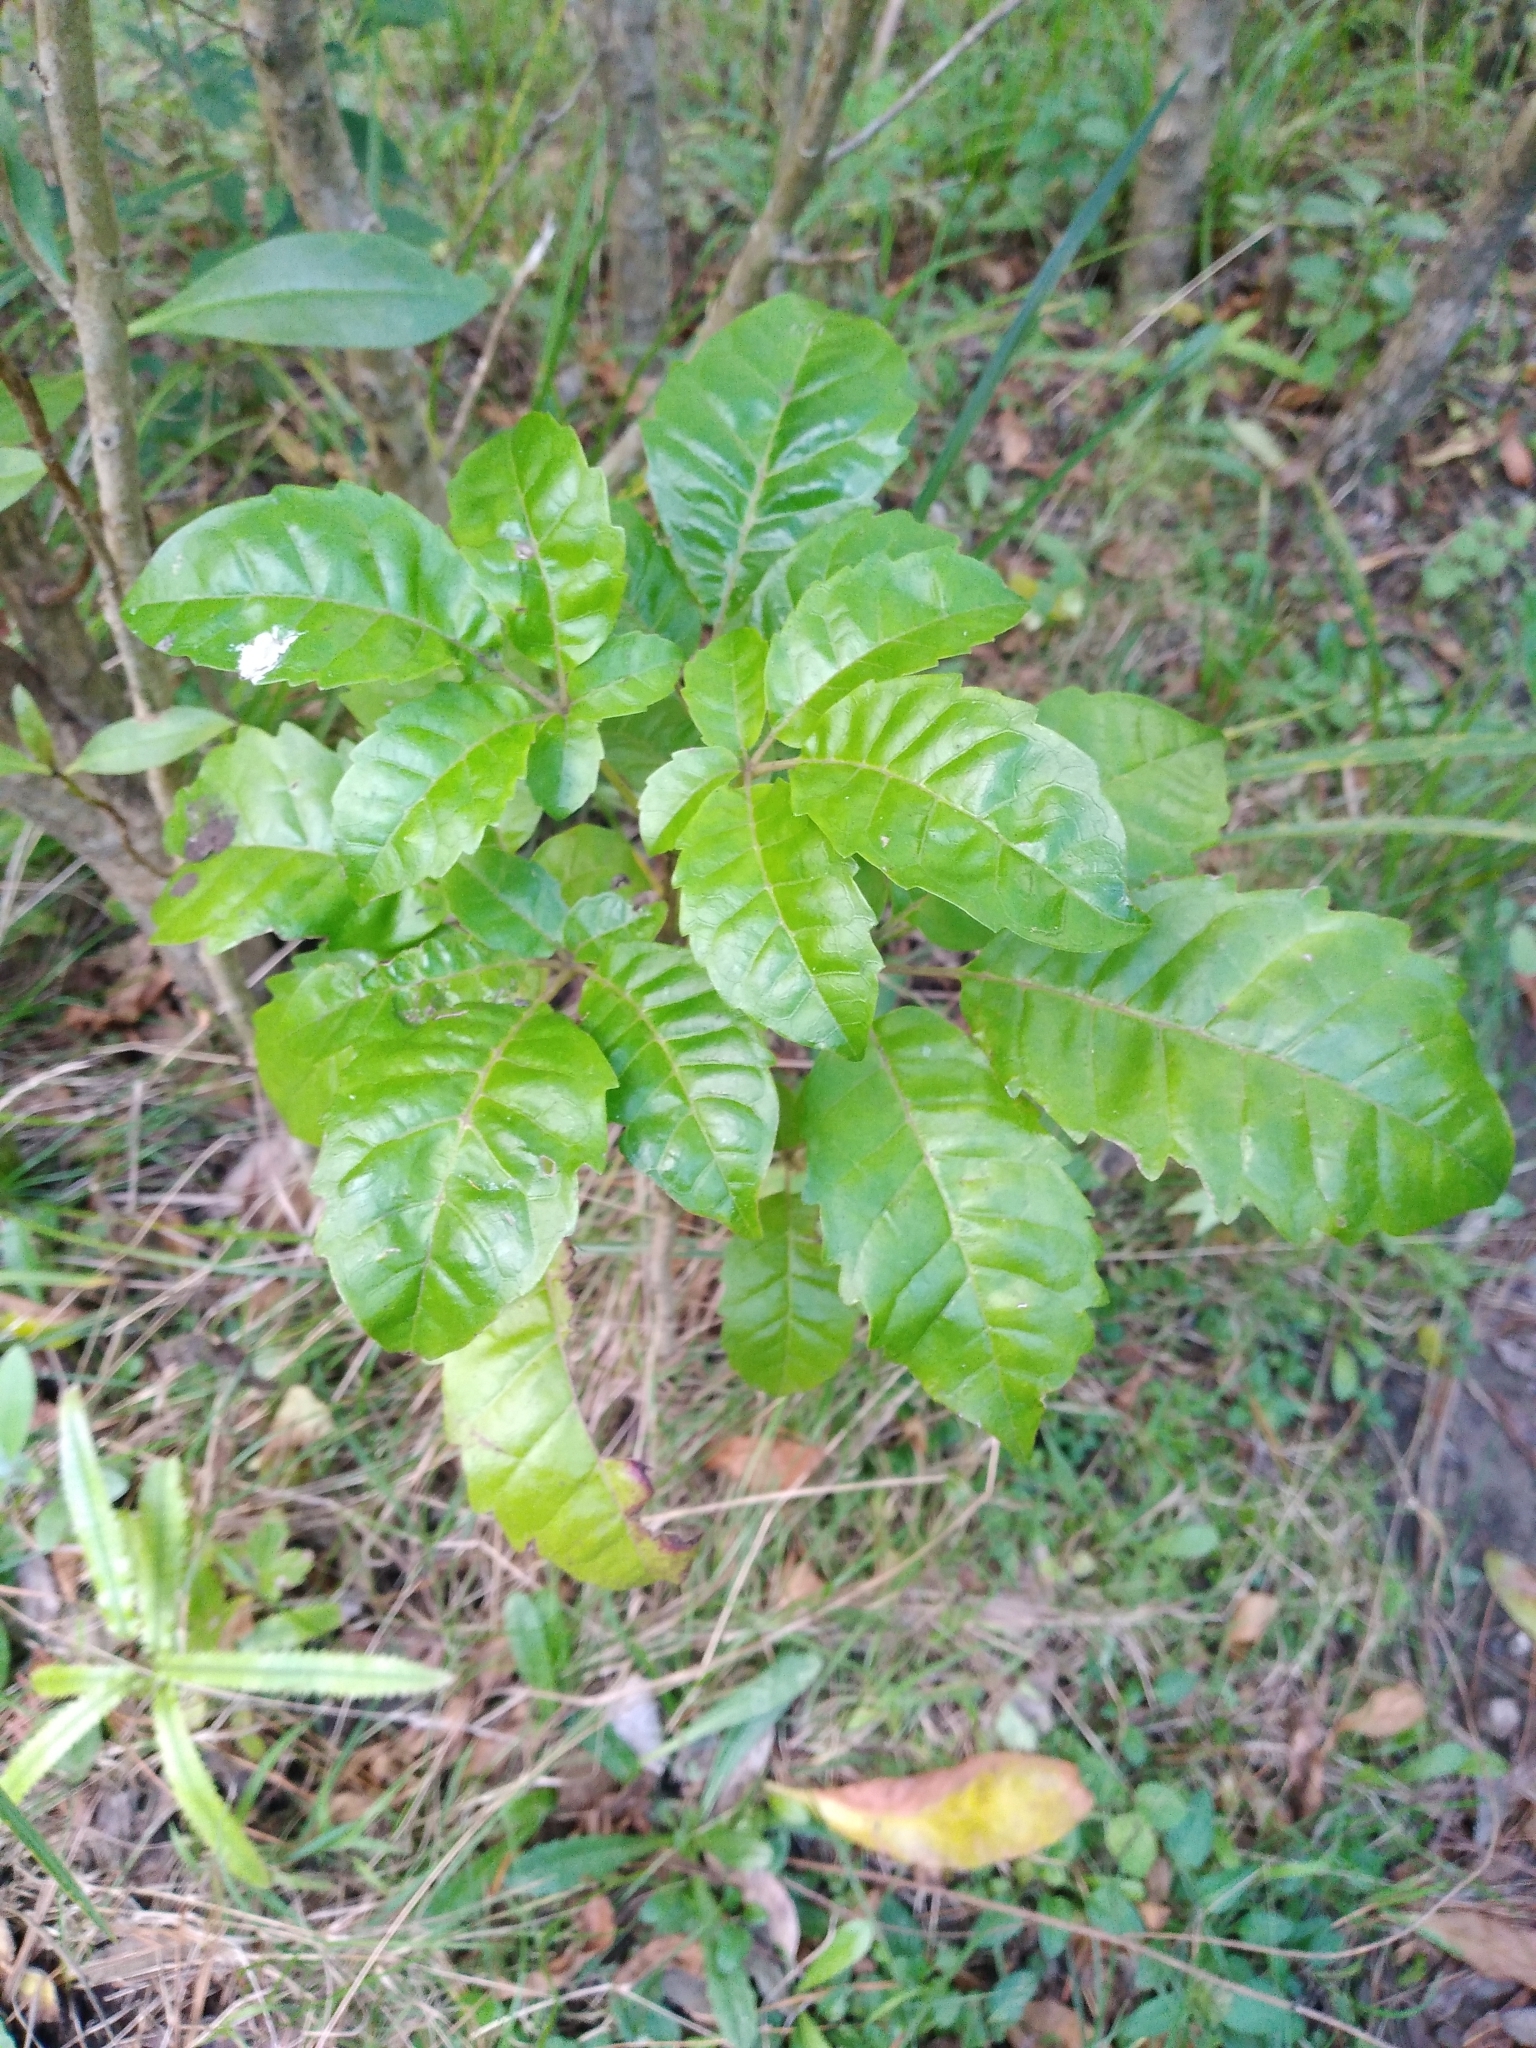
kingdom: Plantae
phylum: Tracheophyta
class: Magnoliopsida
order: Lamiales
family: Lamiaceae
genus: Vitex
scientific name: Vitex lucens
